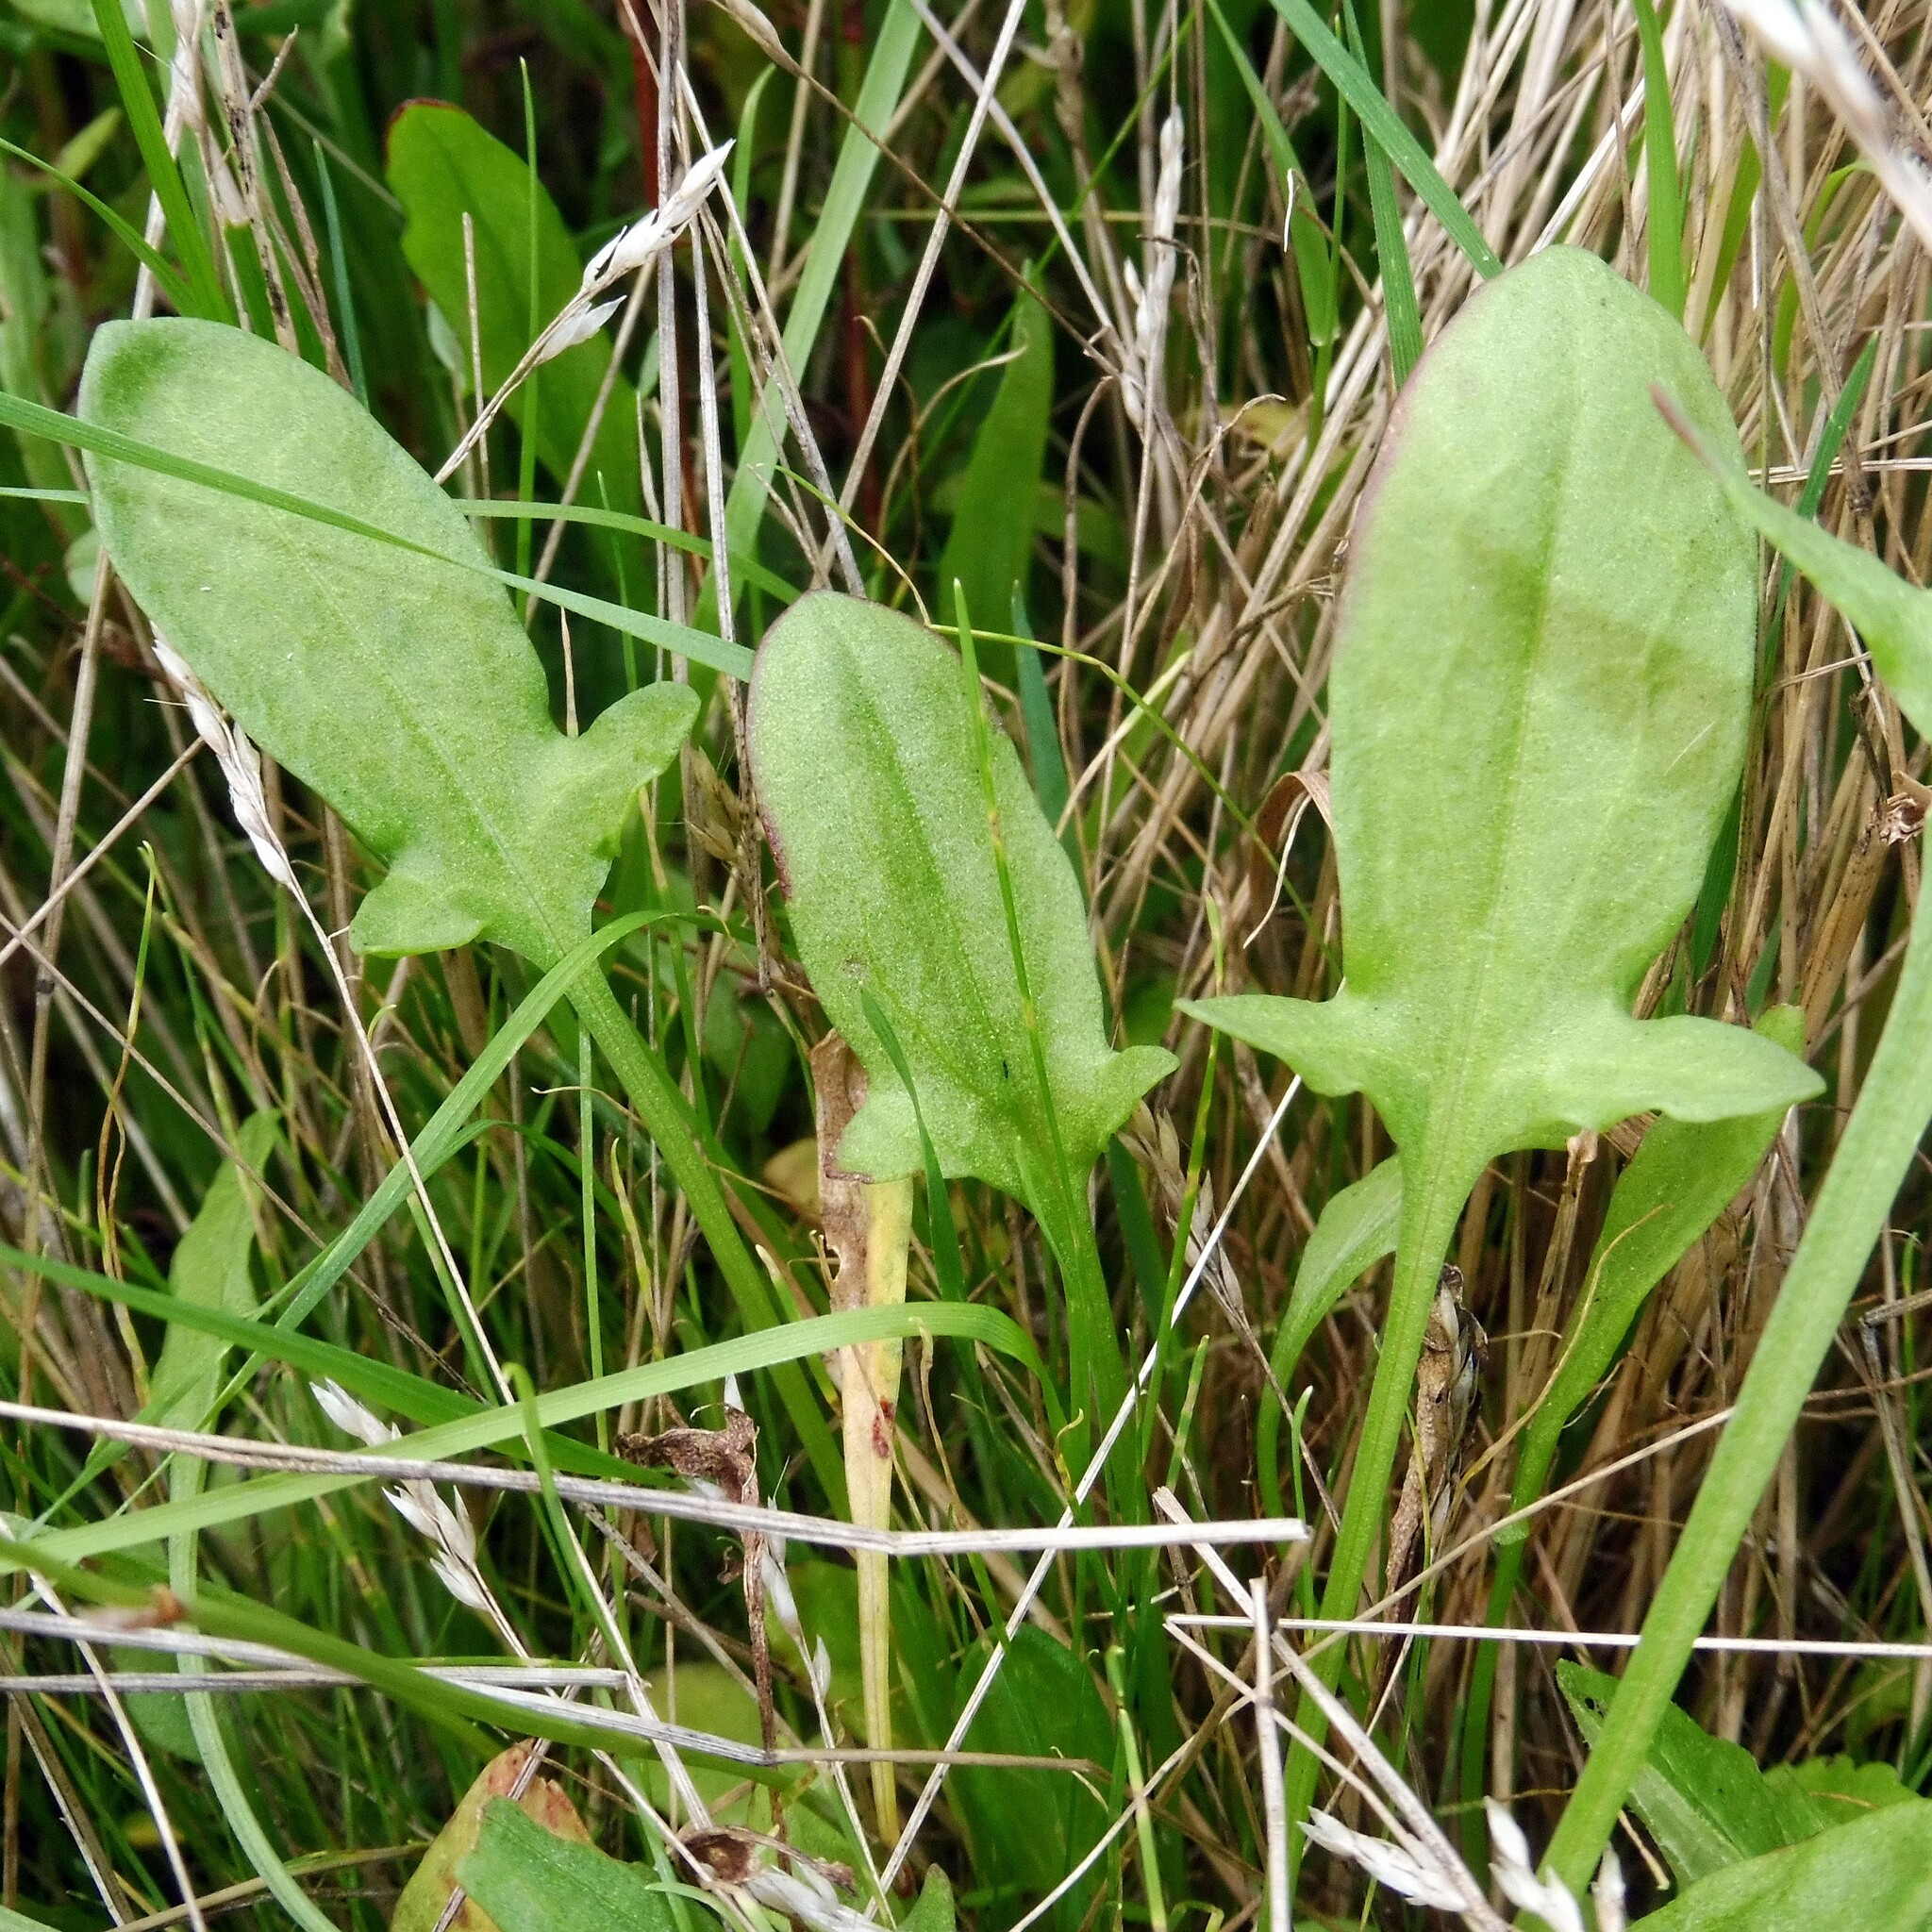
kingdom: Plantae
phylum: Tracheophyta
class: Magnoliopsida
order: Caryophyllales
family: Polygonaceae
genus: Rumex
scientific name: Rumex acetosella
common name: Common sheep sorrel
